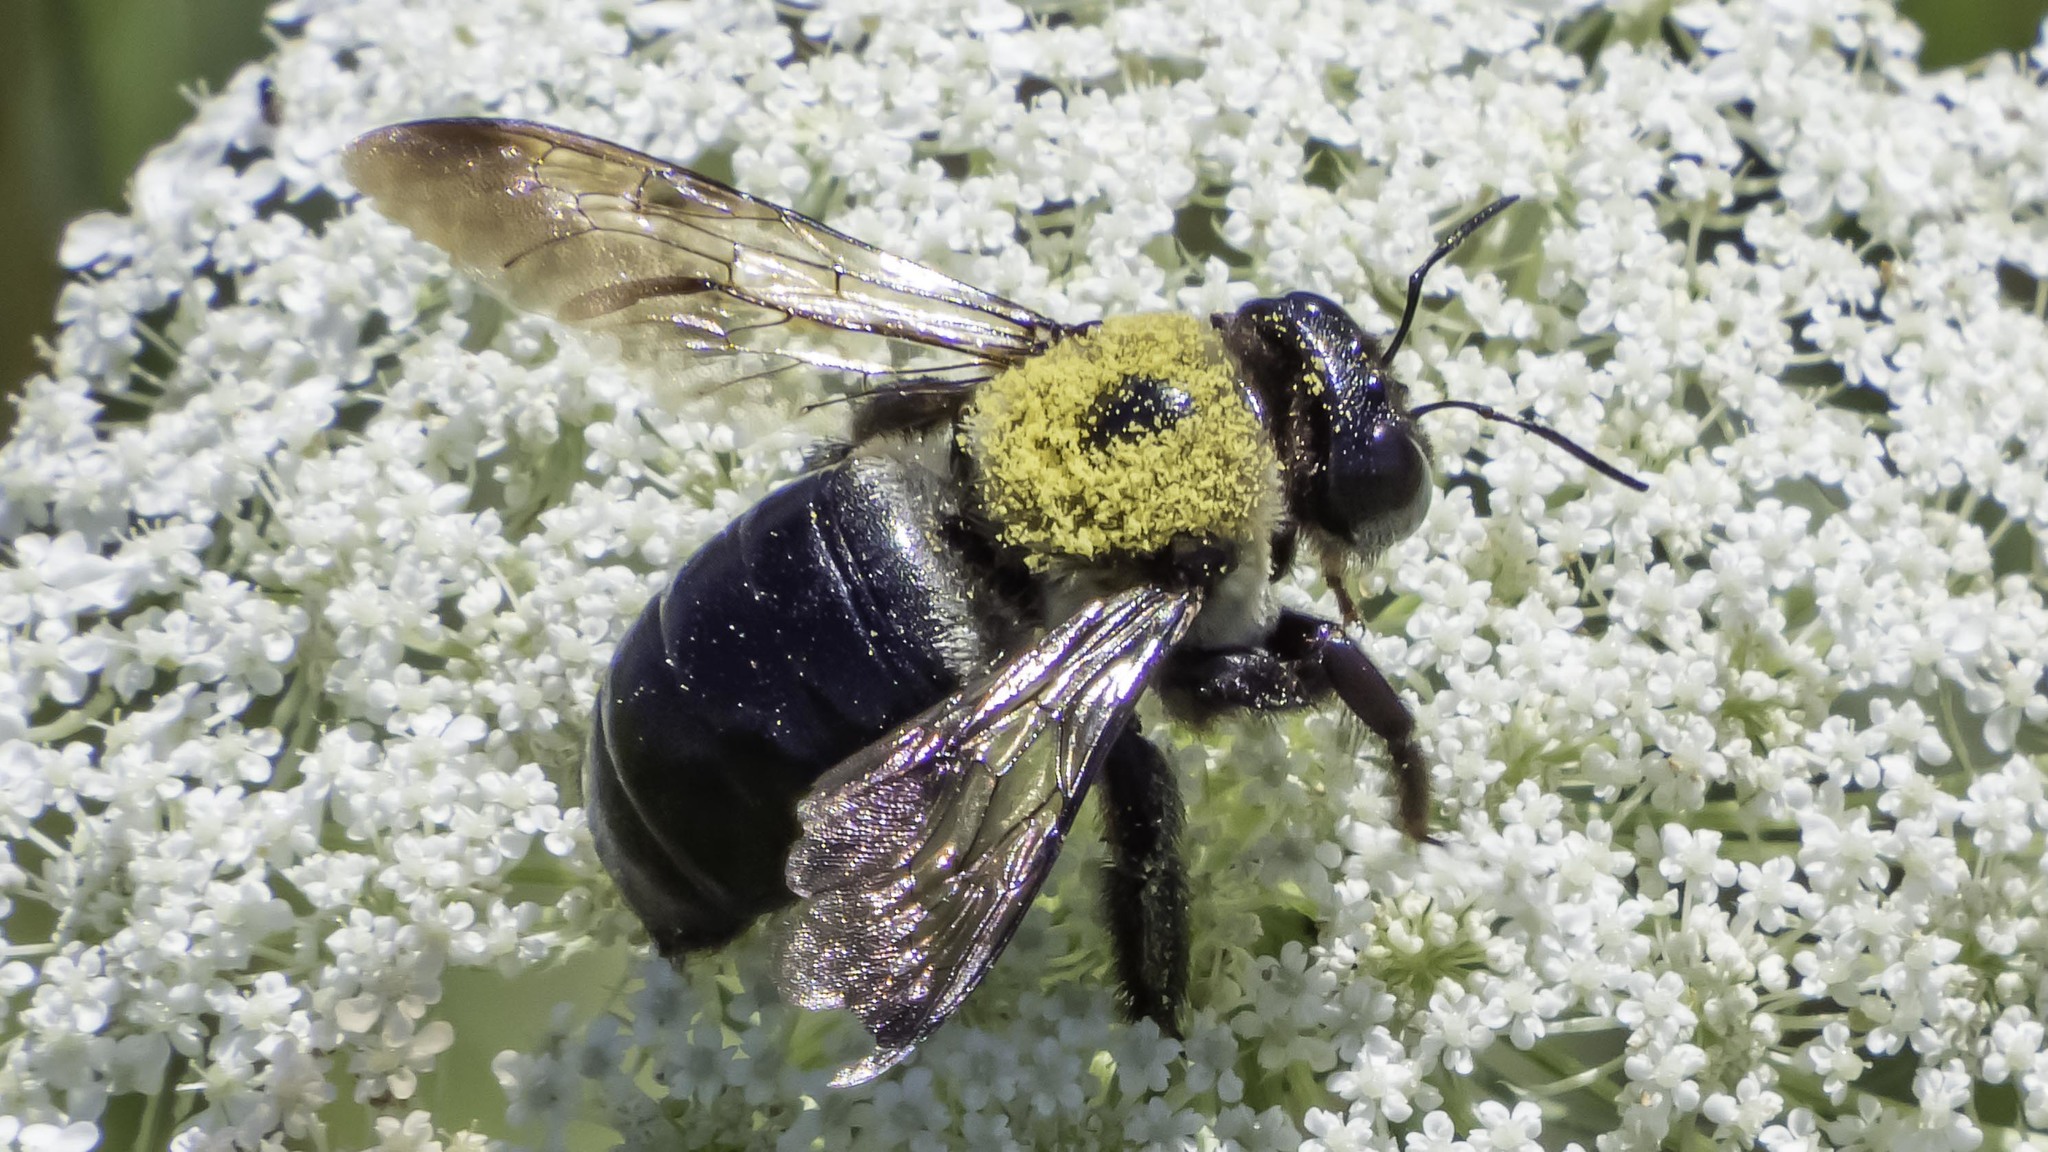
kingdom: Animalia
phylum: Arthropoda
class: Insecta
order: Hymenoptera
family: Apidae
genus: Xylocopa
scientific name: Xylocopa virginica
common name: Carpenter bee
